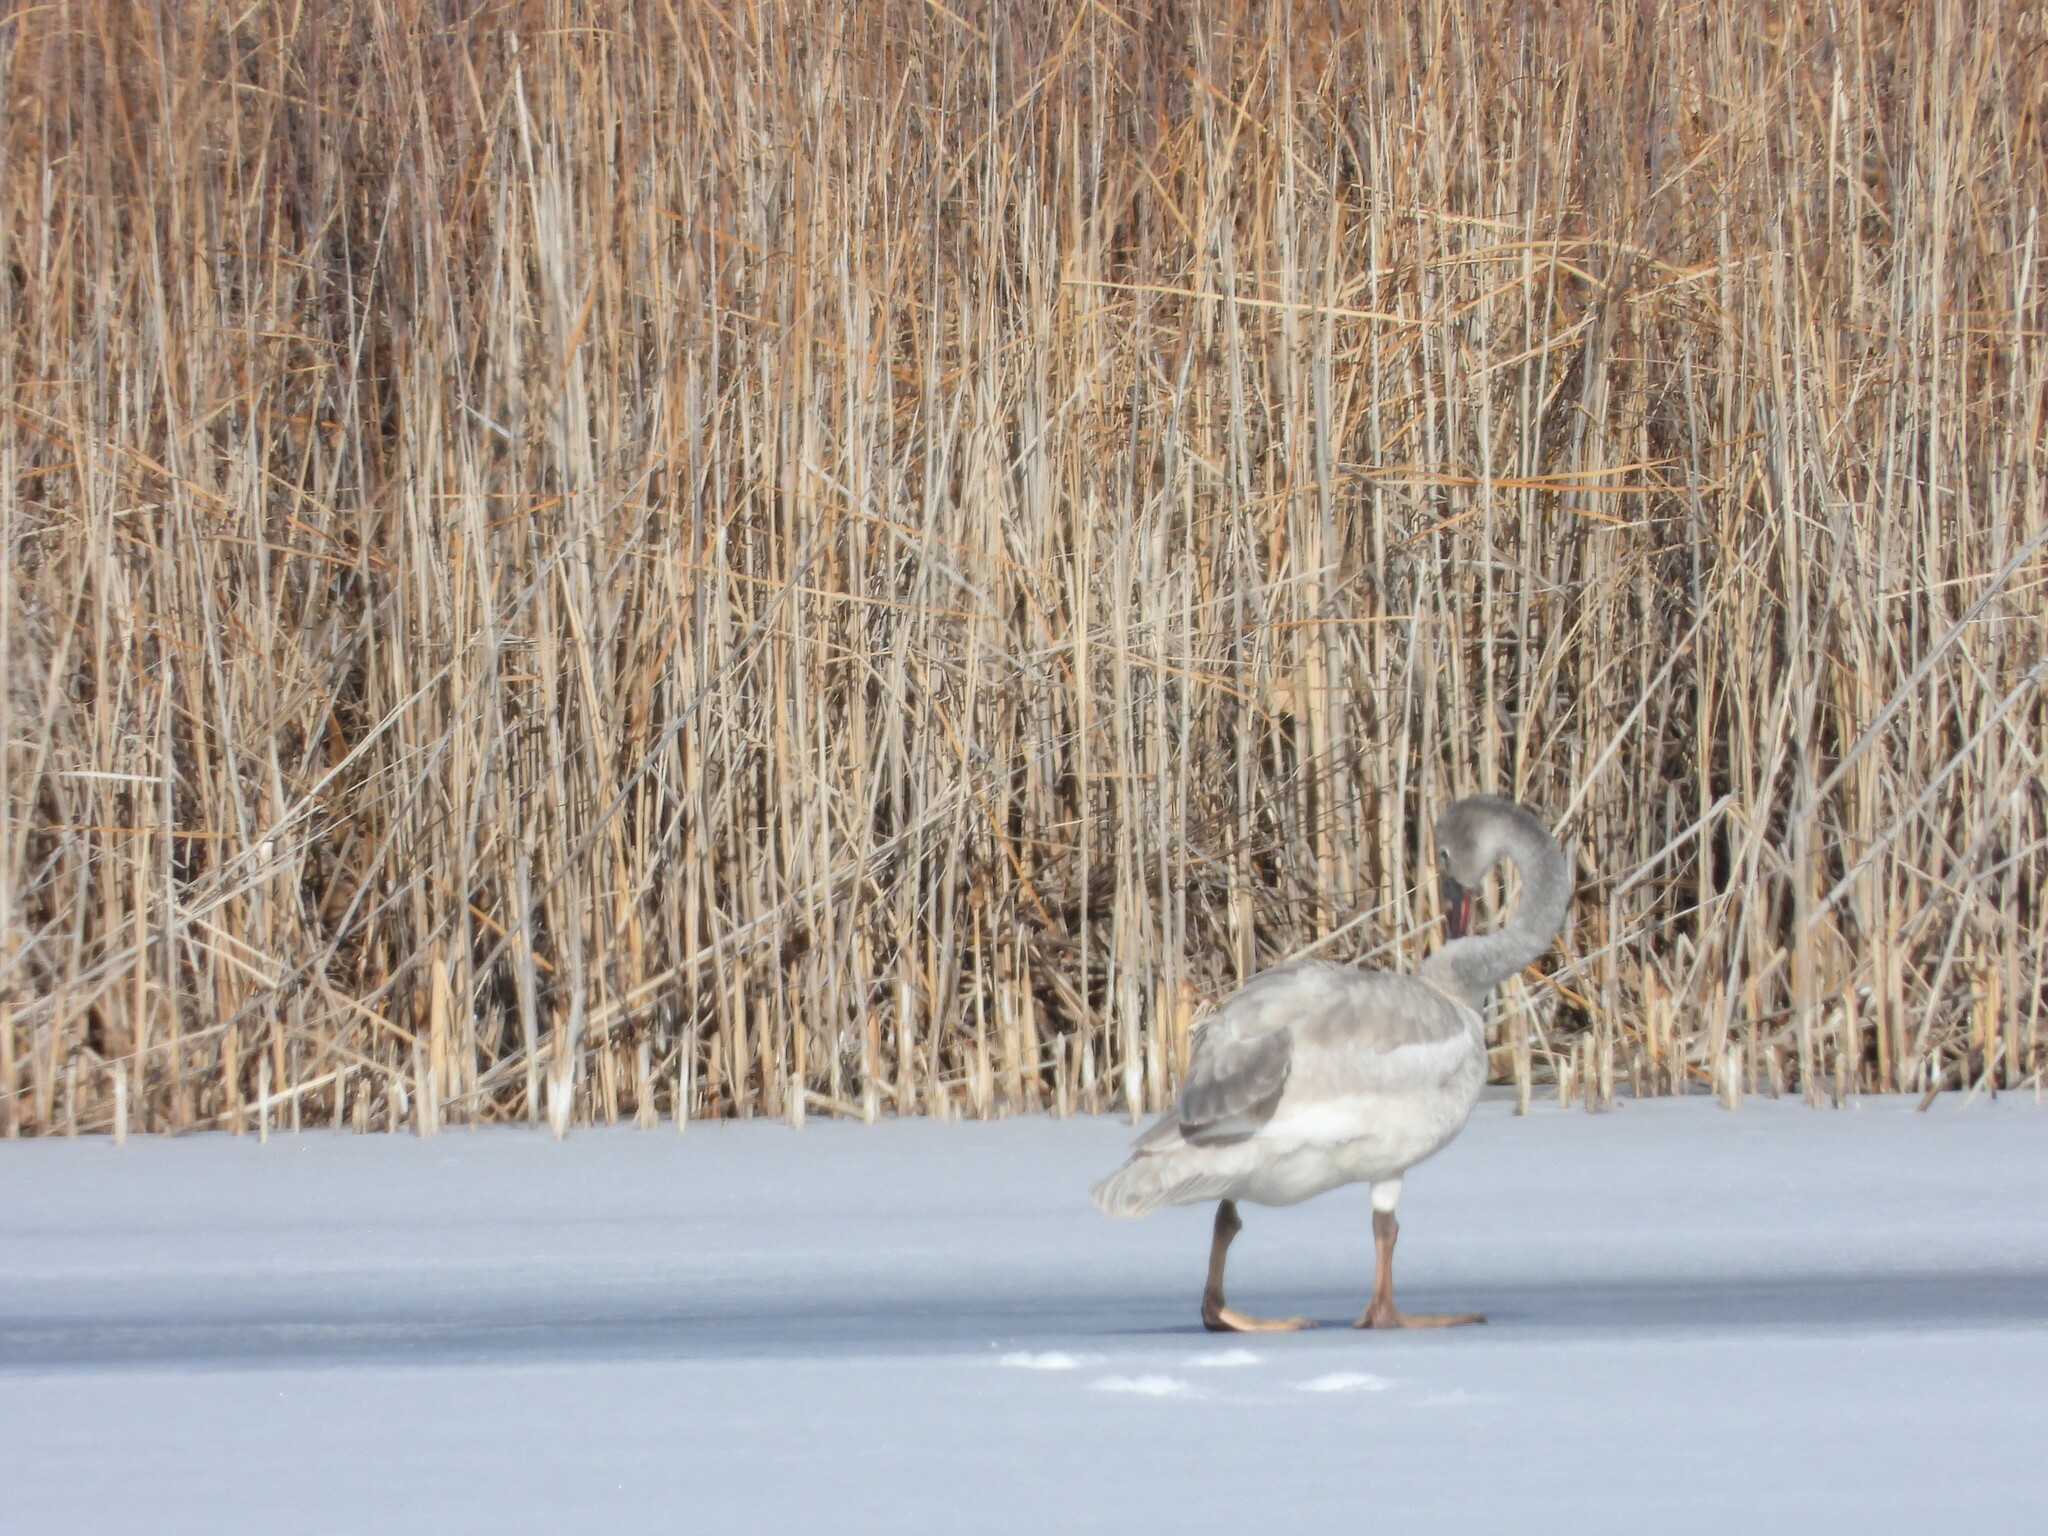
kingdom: Animalia
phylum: Chordata
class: Aves
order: Anseriformes
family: Anatidae
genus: Cygnus
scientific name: Cygnus buccinator
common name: Trumpeter swan
